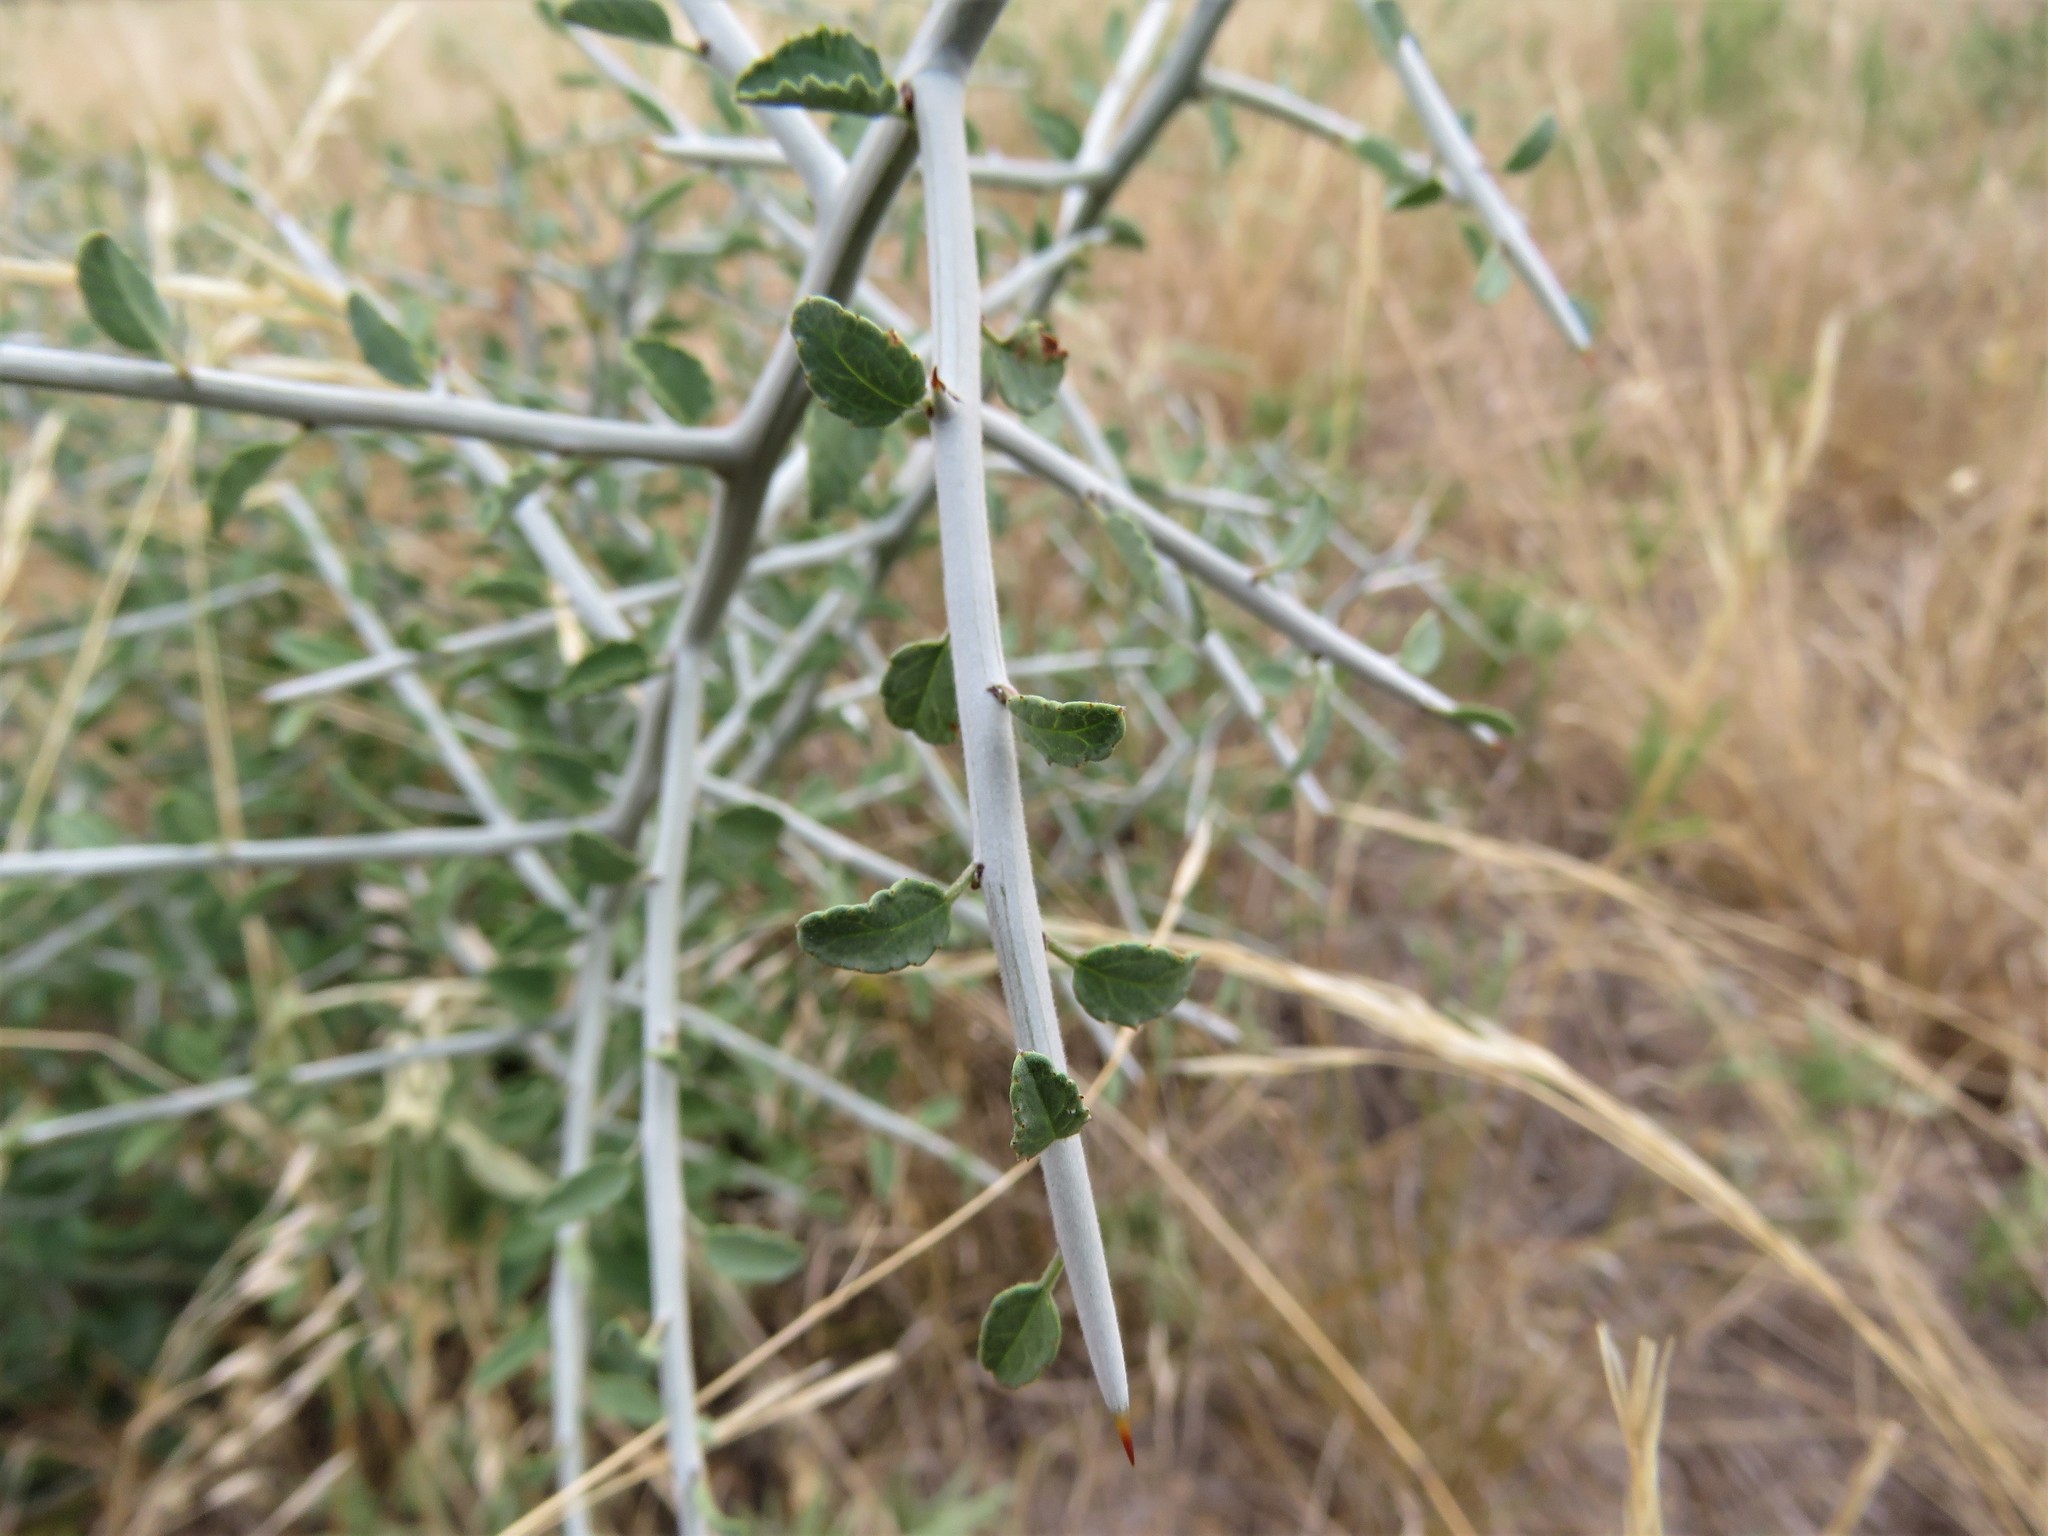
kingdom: Plantae
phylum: Tracheophyta
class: Magnoliopsida
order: Rosales
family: Rhamnaceae
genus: Sarcomphalus
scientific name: Sarcomphalus obtusifolius
